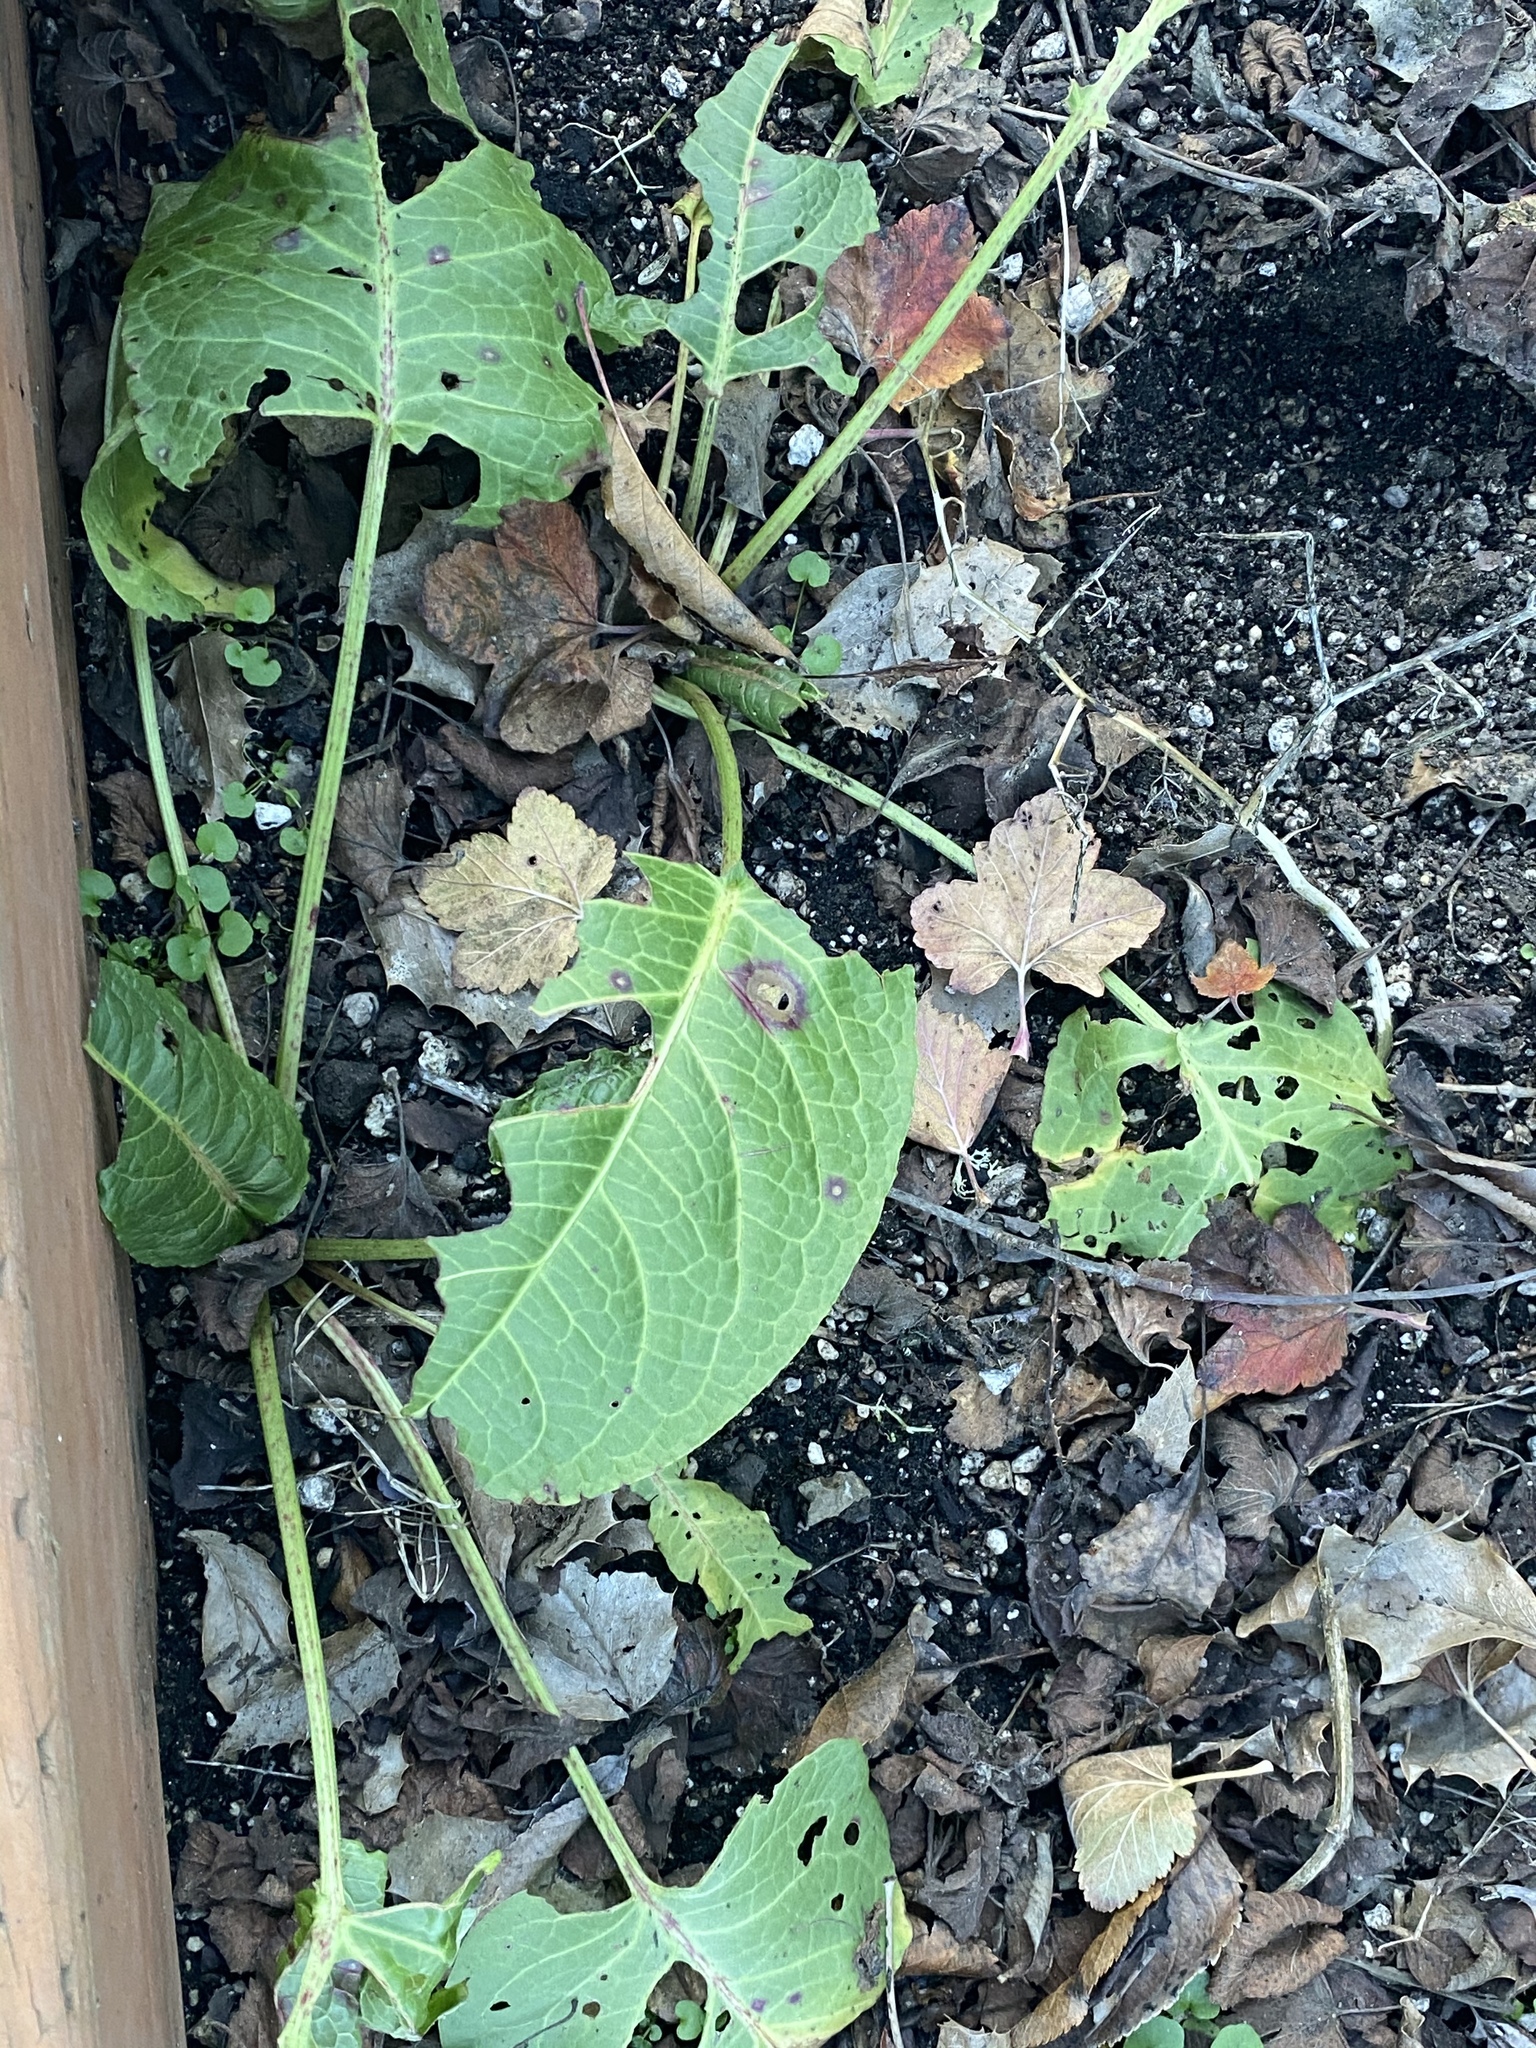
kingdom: Plantae
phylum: Tracheophyta
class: Magnoliopsida
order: Caryophyllales
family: Polygonaceae
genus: Rumex
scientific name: Rumex obtusifolius
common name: Bitter dock
